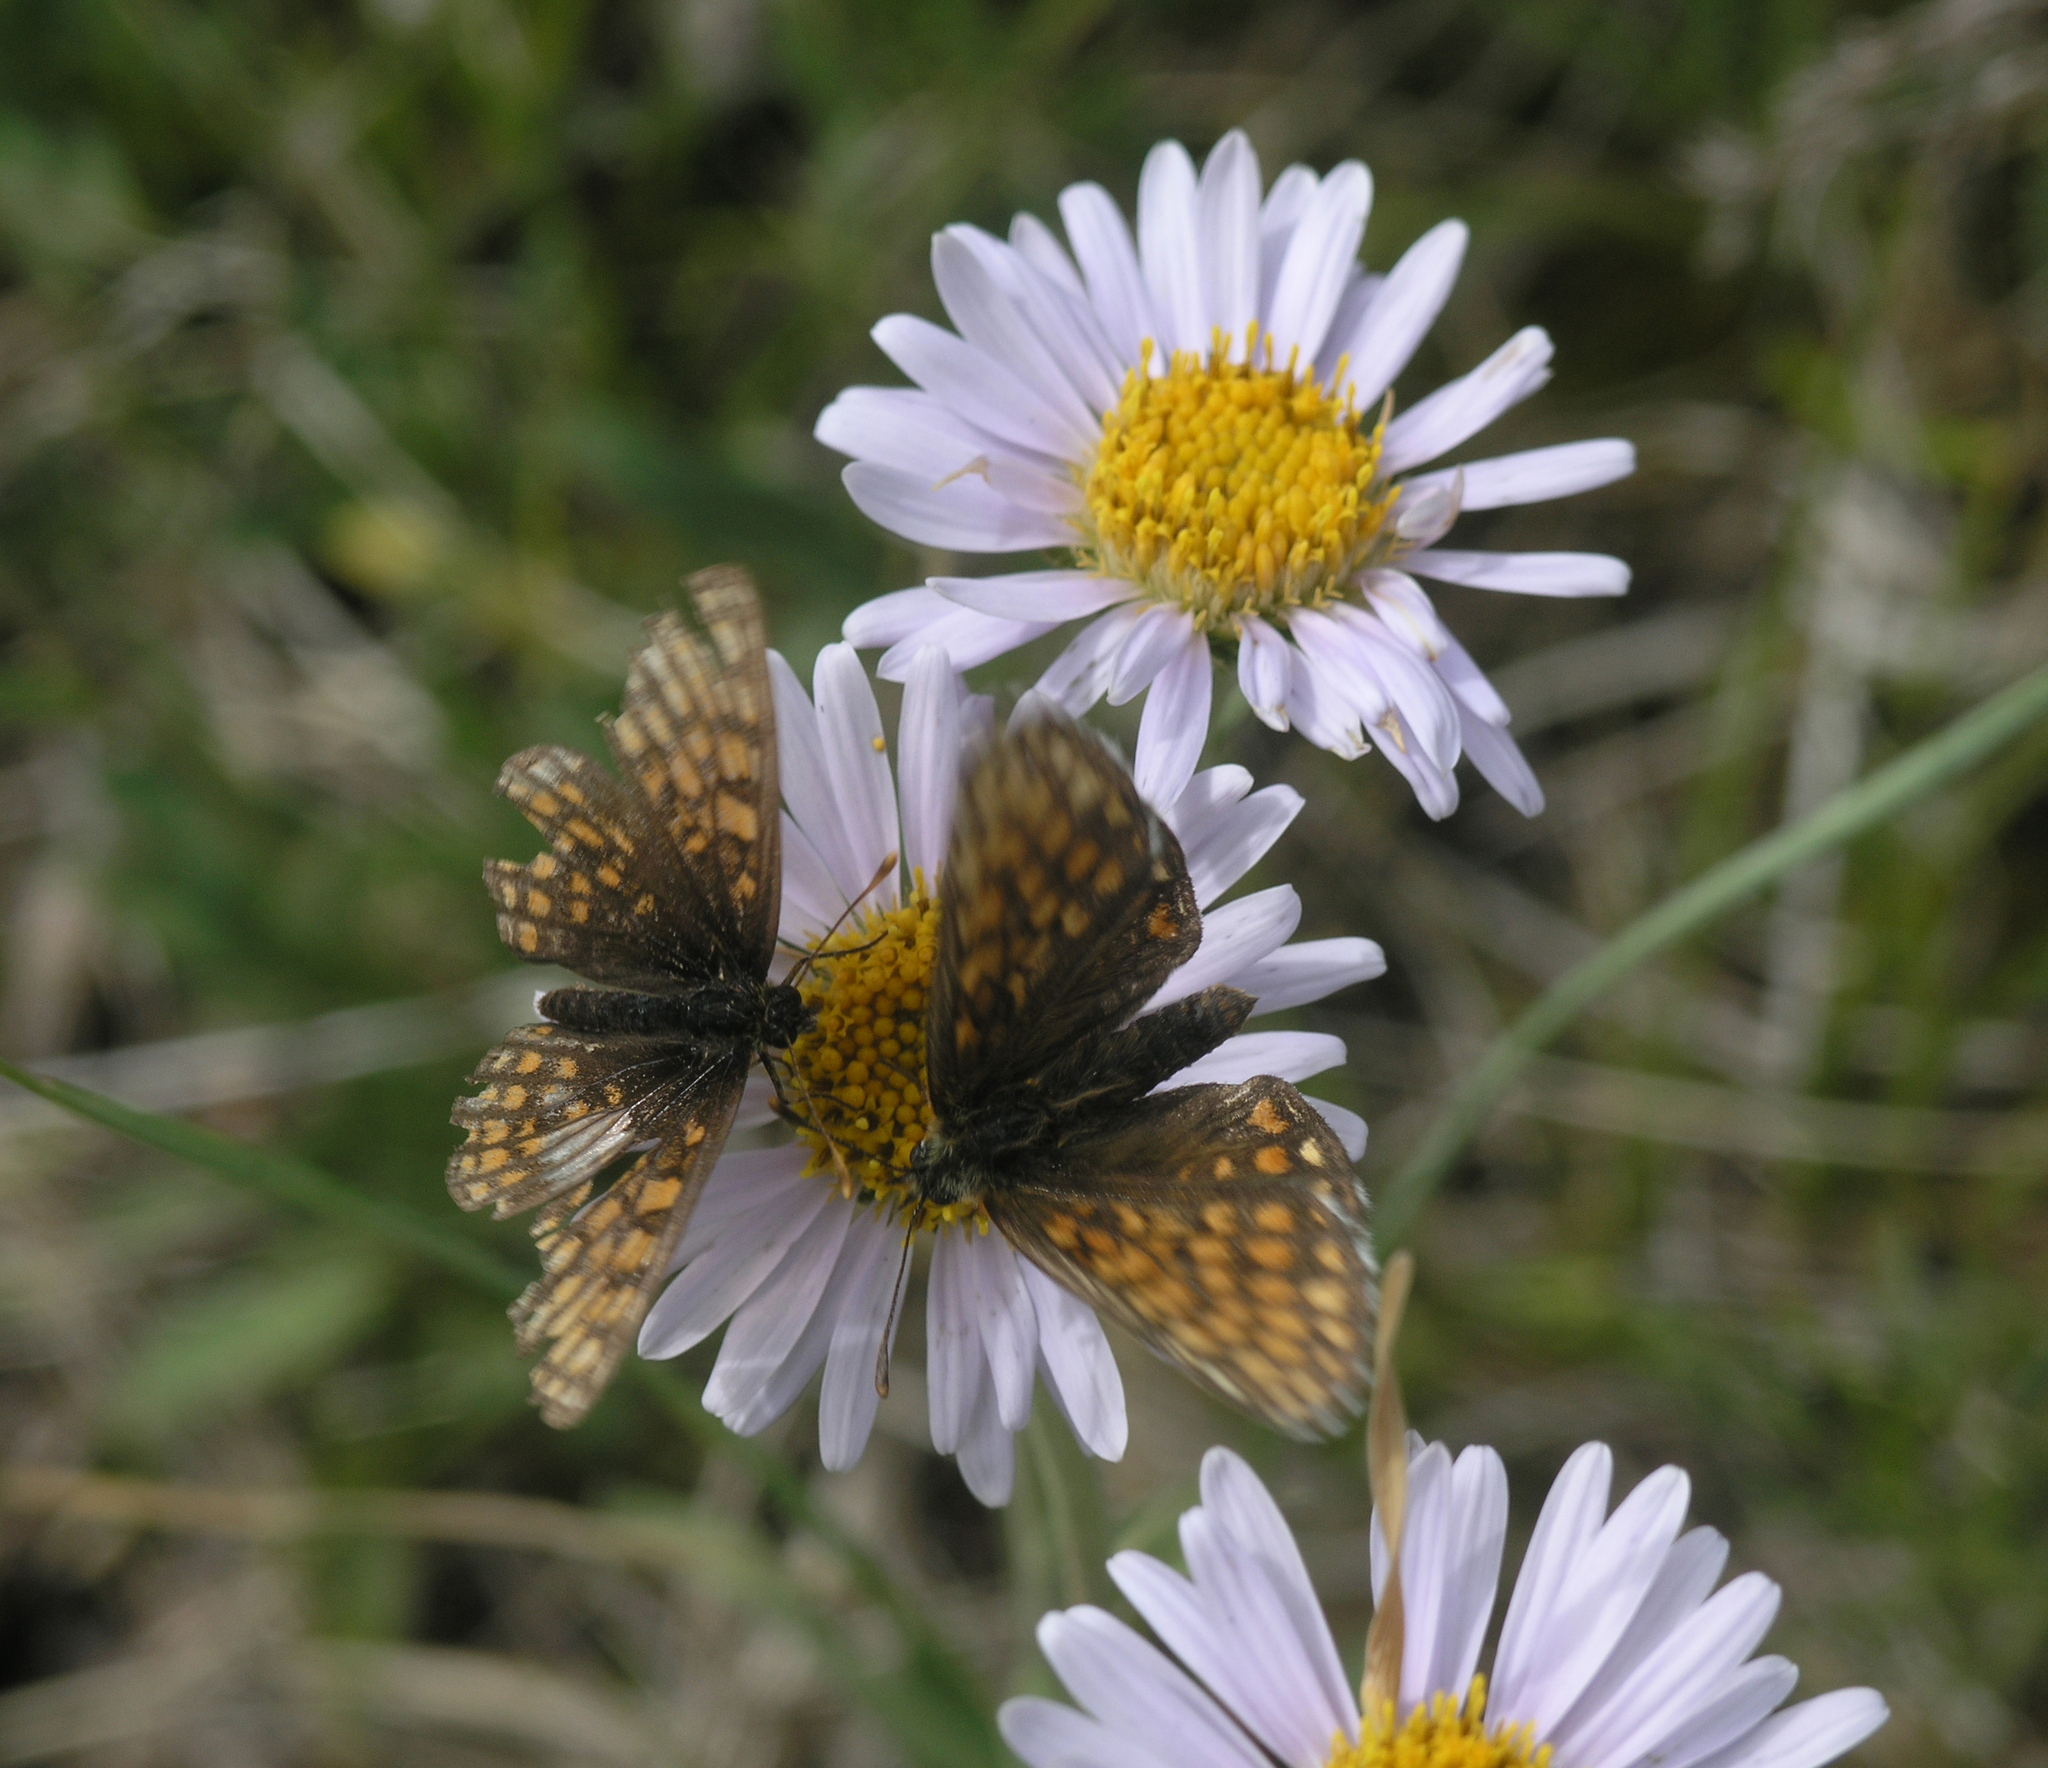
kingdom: Animalia
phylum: Arthropoda
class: Insecta
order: Lepidoptera
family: Nymphalidae
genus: Mellicta
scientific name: Mellicta menetriesi
